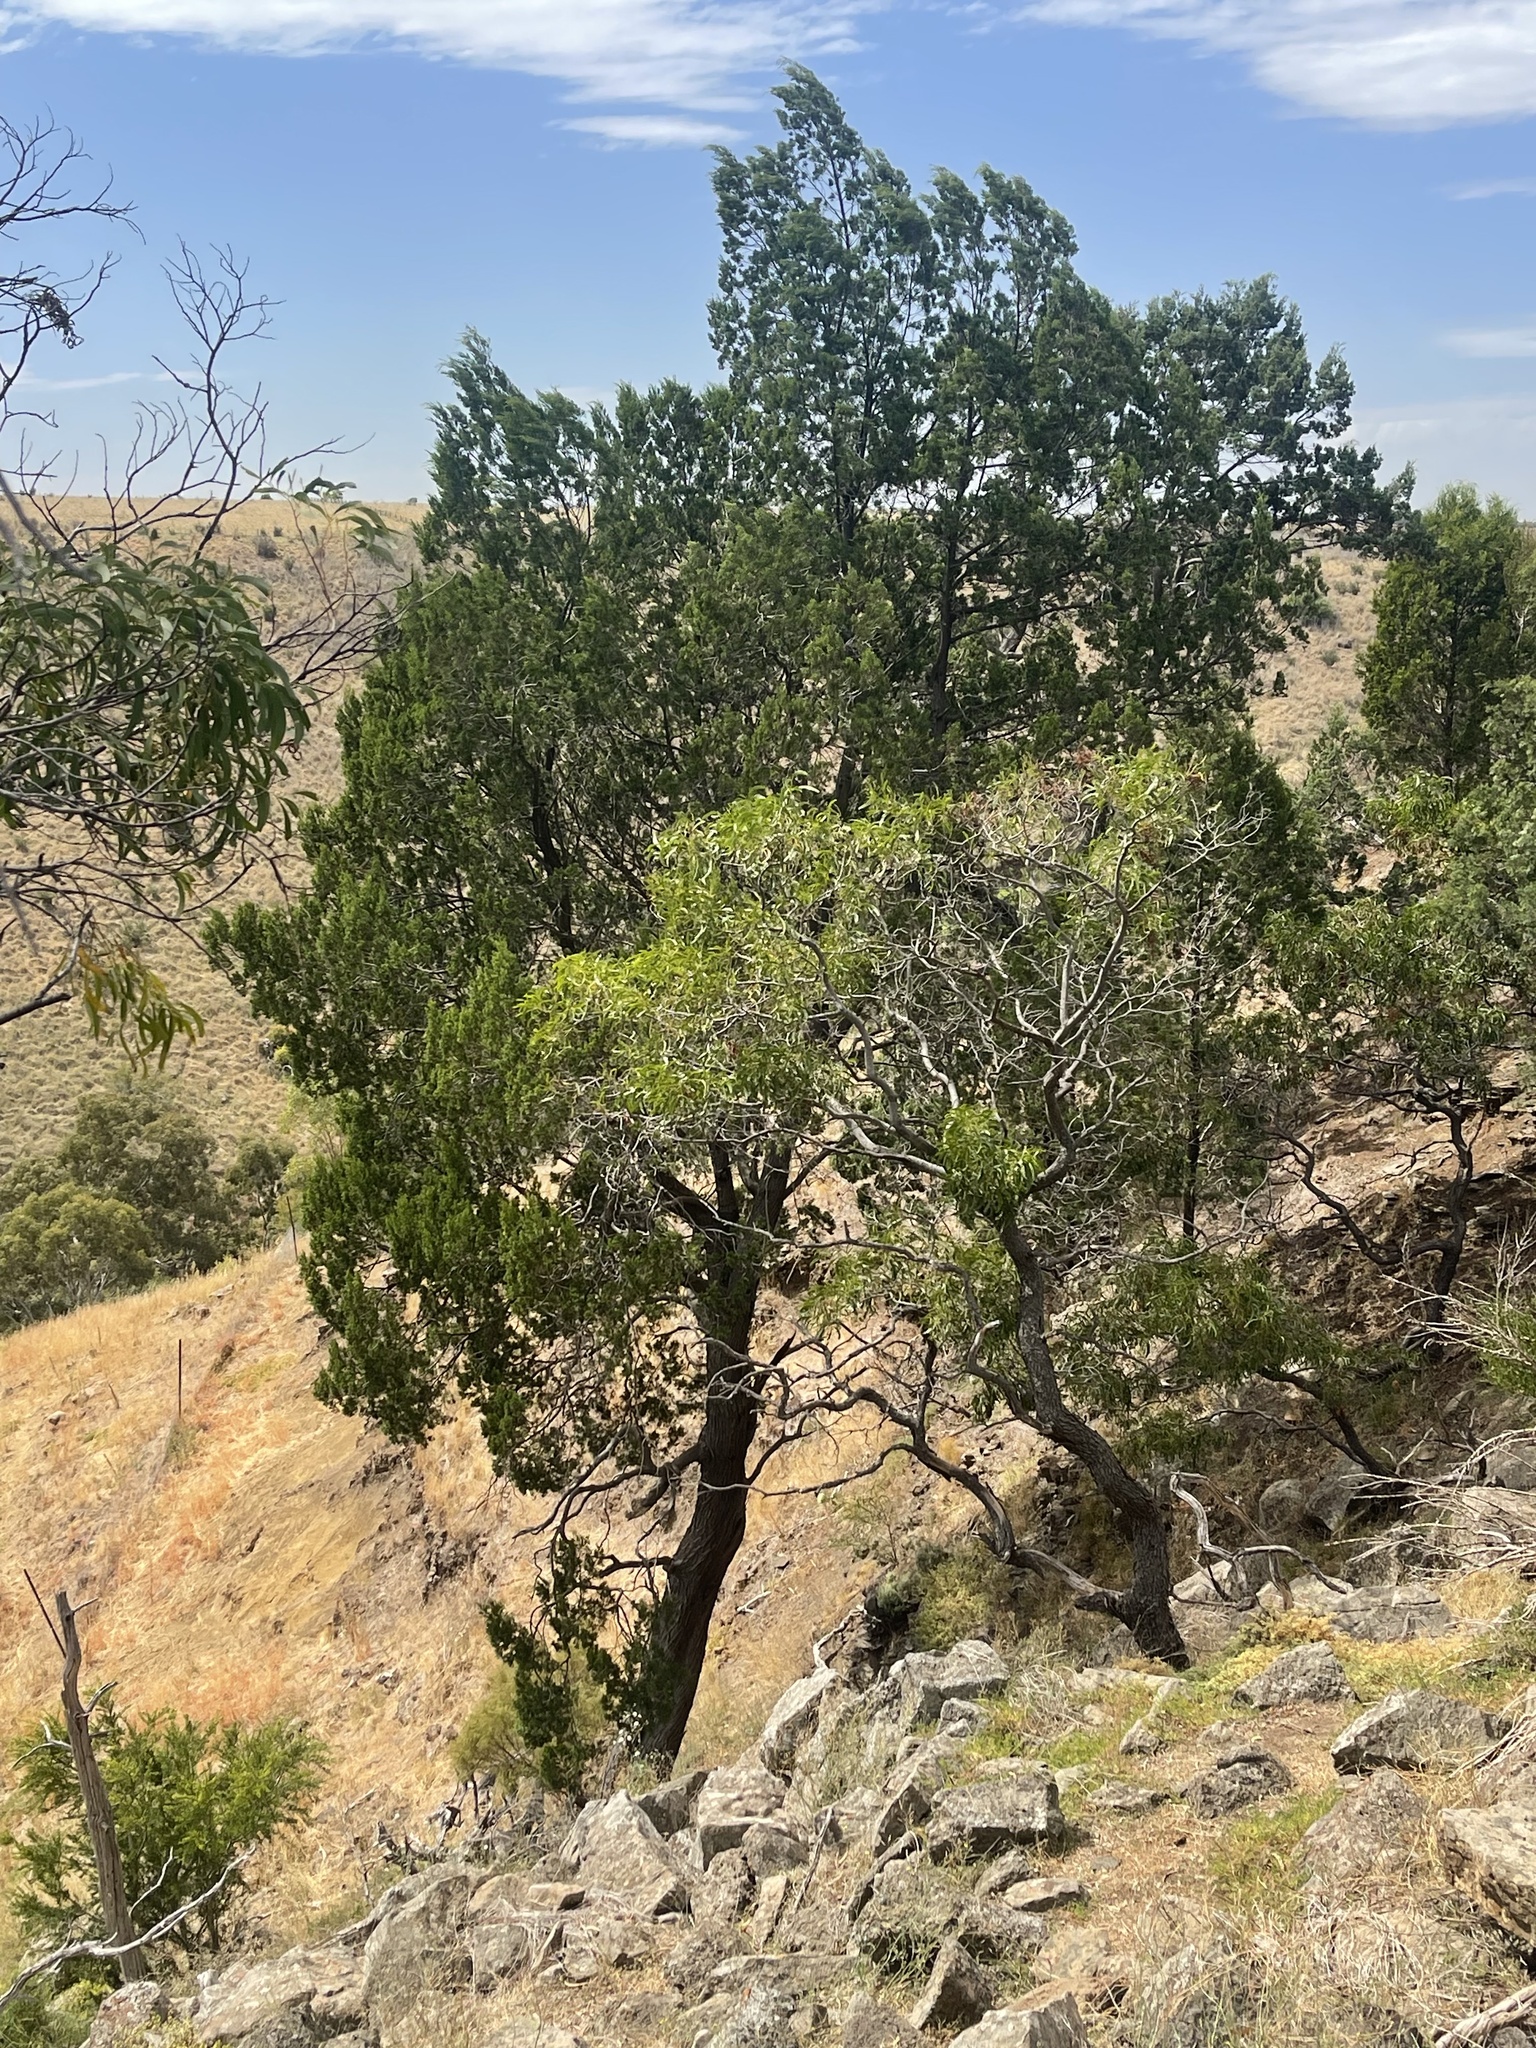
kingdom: Plantae
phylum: Tracheophyta
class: Pinopsida
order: Pinales
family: Cupressaceae
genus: Callitris
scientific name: Callitris columellaris
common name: White cypress-pine
